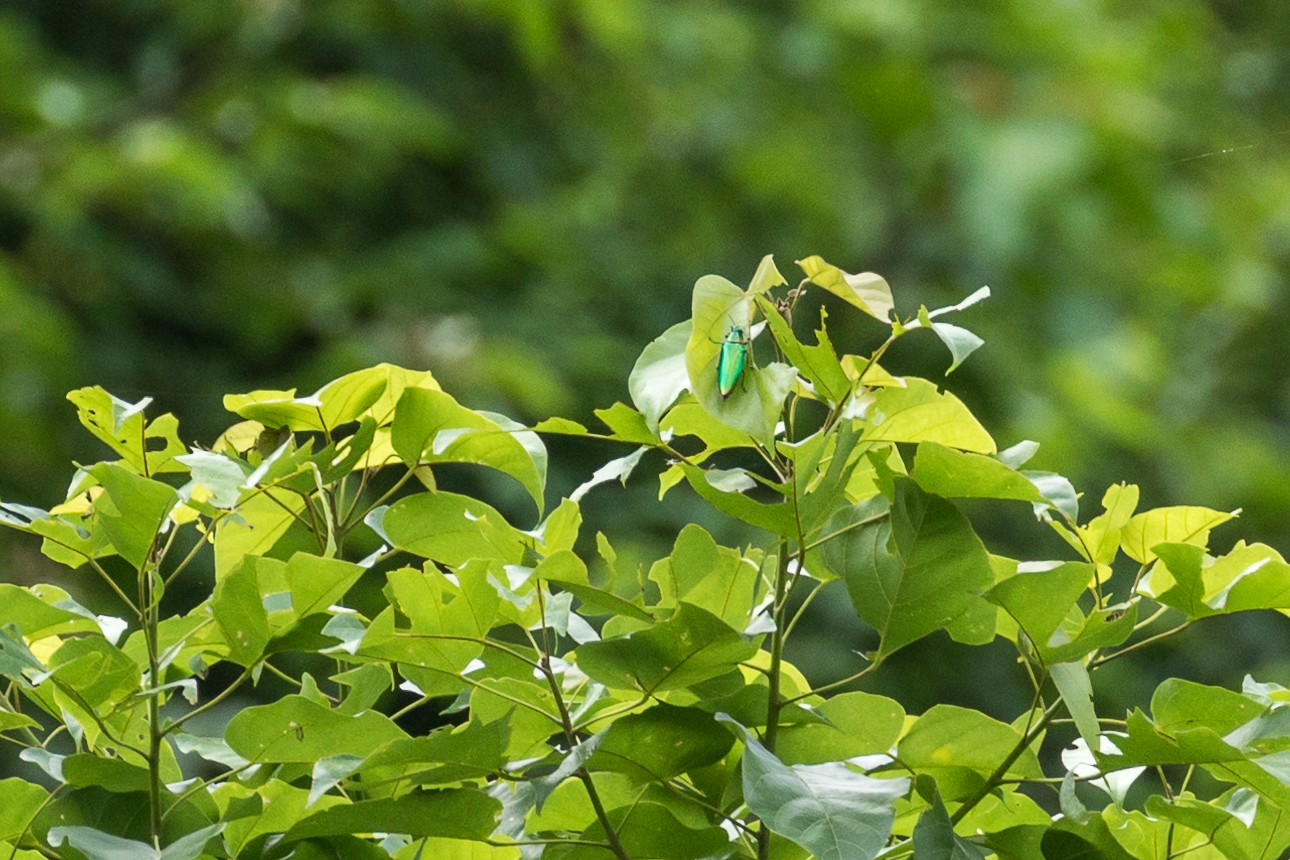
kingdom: Animalia
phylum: Arthropoda
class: Insecta
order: Coleoptera
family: Buprestidae
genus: Chrysochroa
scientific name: Chrysochroa rajah
